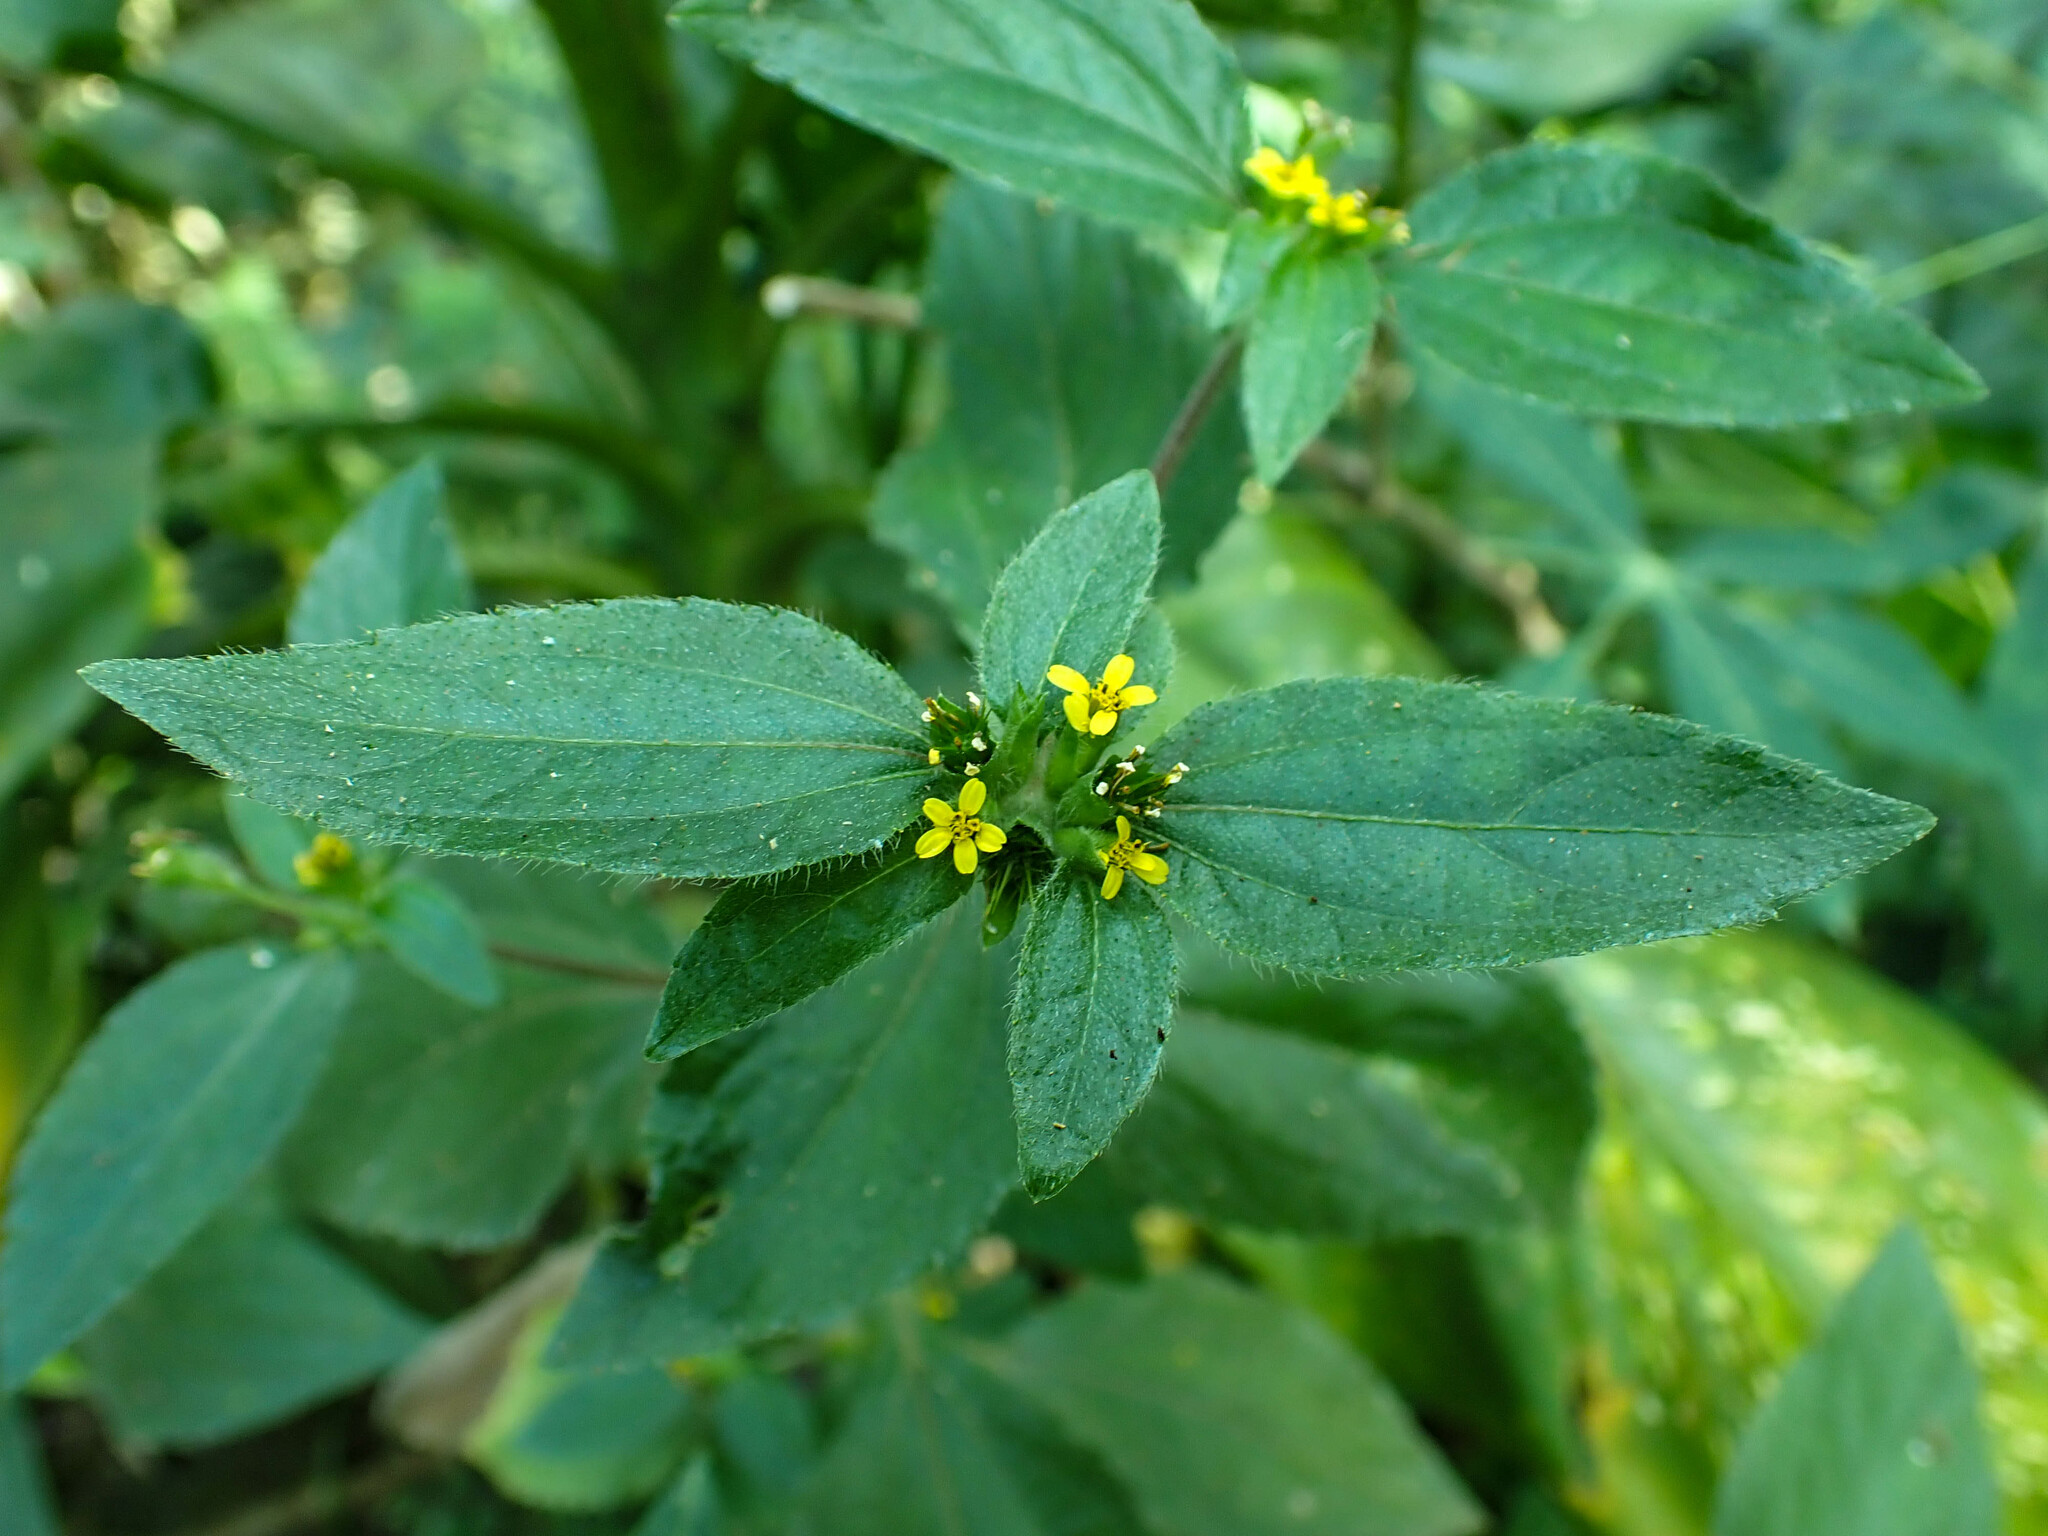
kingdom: Plantae
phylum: Tracheophyta
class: Magnoliopsida
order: Asterales
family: Asteraceae
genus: Synedrella
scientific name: Synedrella nodiflora
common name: Nodeweed
